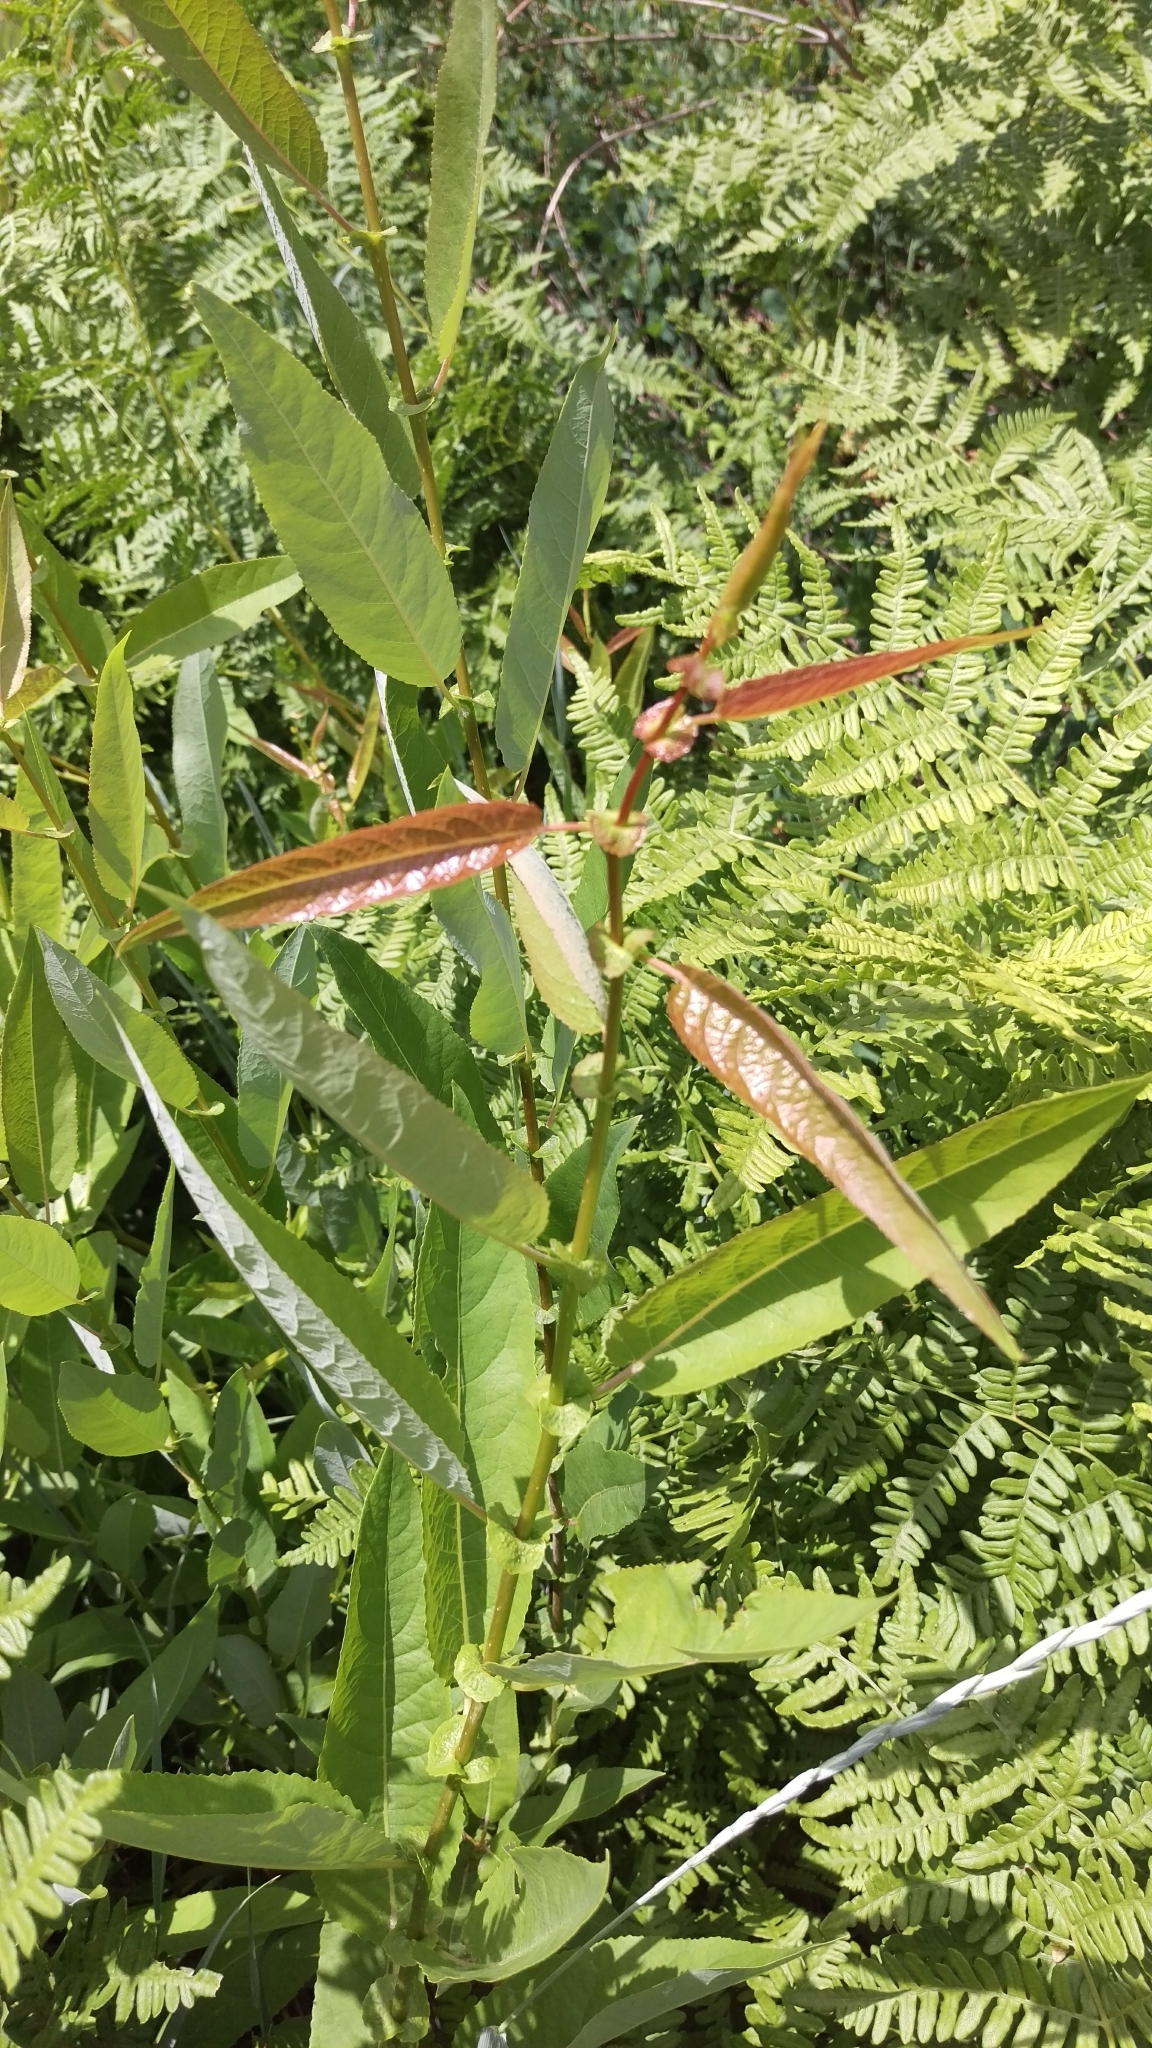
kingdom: Plantae
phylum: Tracheophyta
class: Magnoliopsida
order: Malpighiales
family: Salicaceae
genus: Salix
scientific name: Salix eriocephala
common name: Heart-leaved willow
